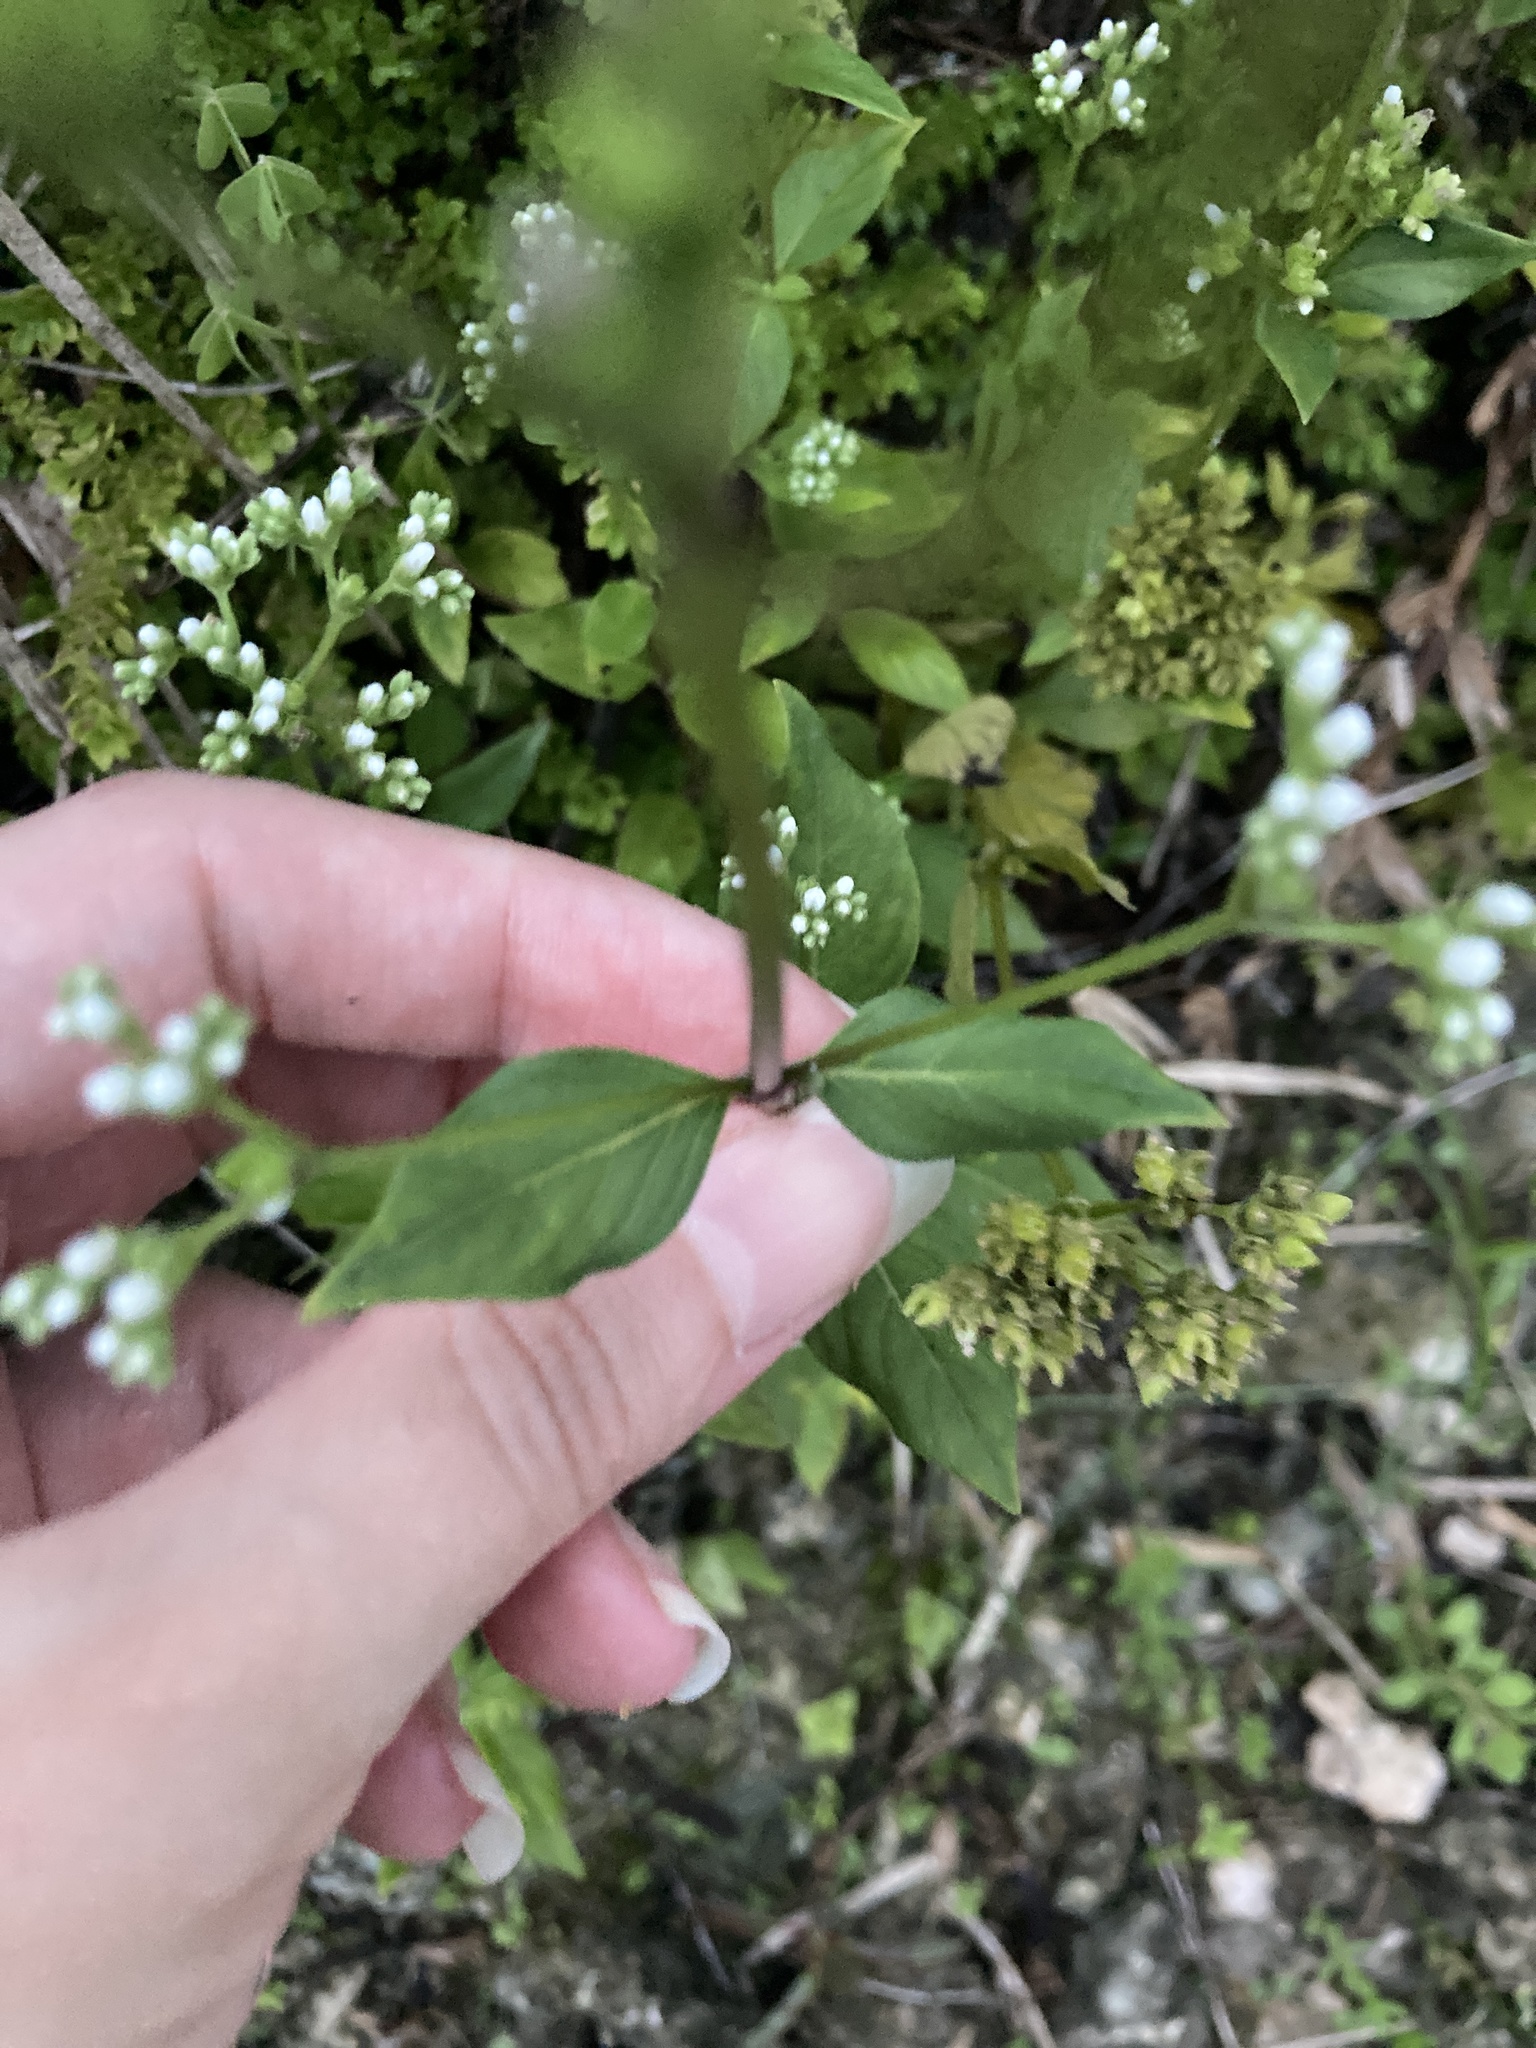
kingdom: Plantae
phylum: Tracheophyta
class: Magnoliopsida
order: Gentianales
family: Loganiaceae
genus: Mitreola
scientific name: Mitreola petiolata
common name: Lax hornpod
